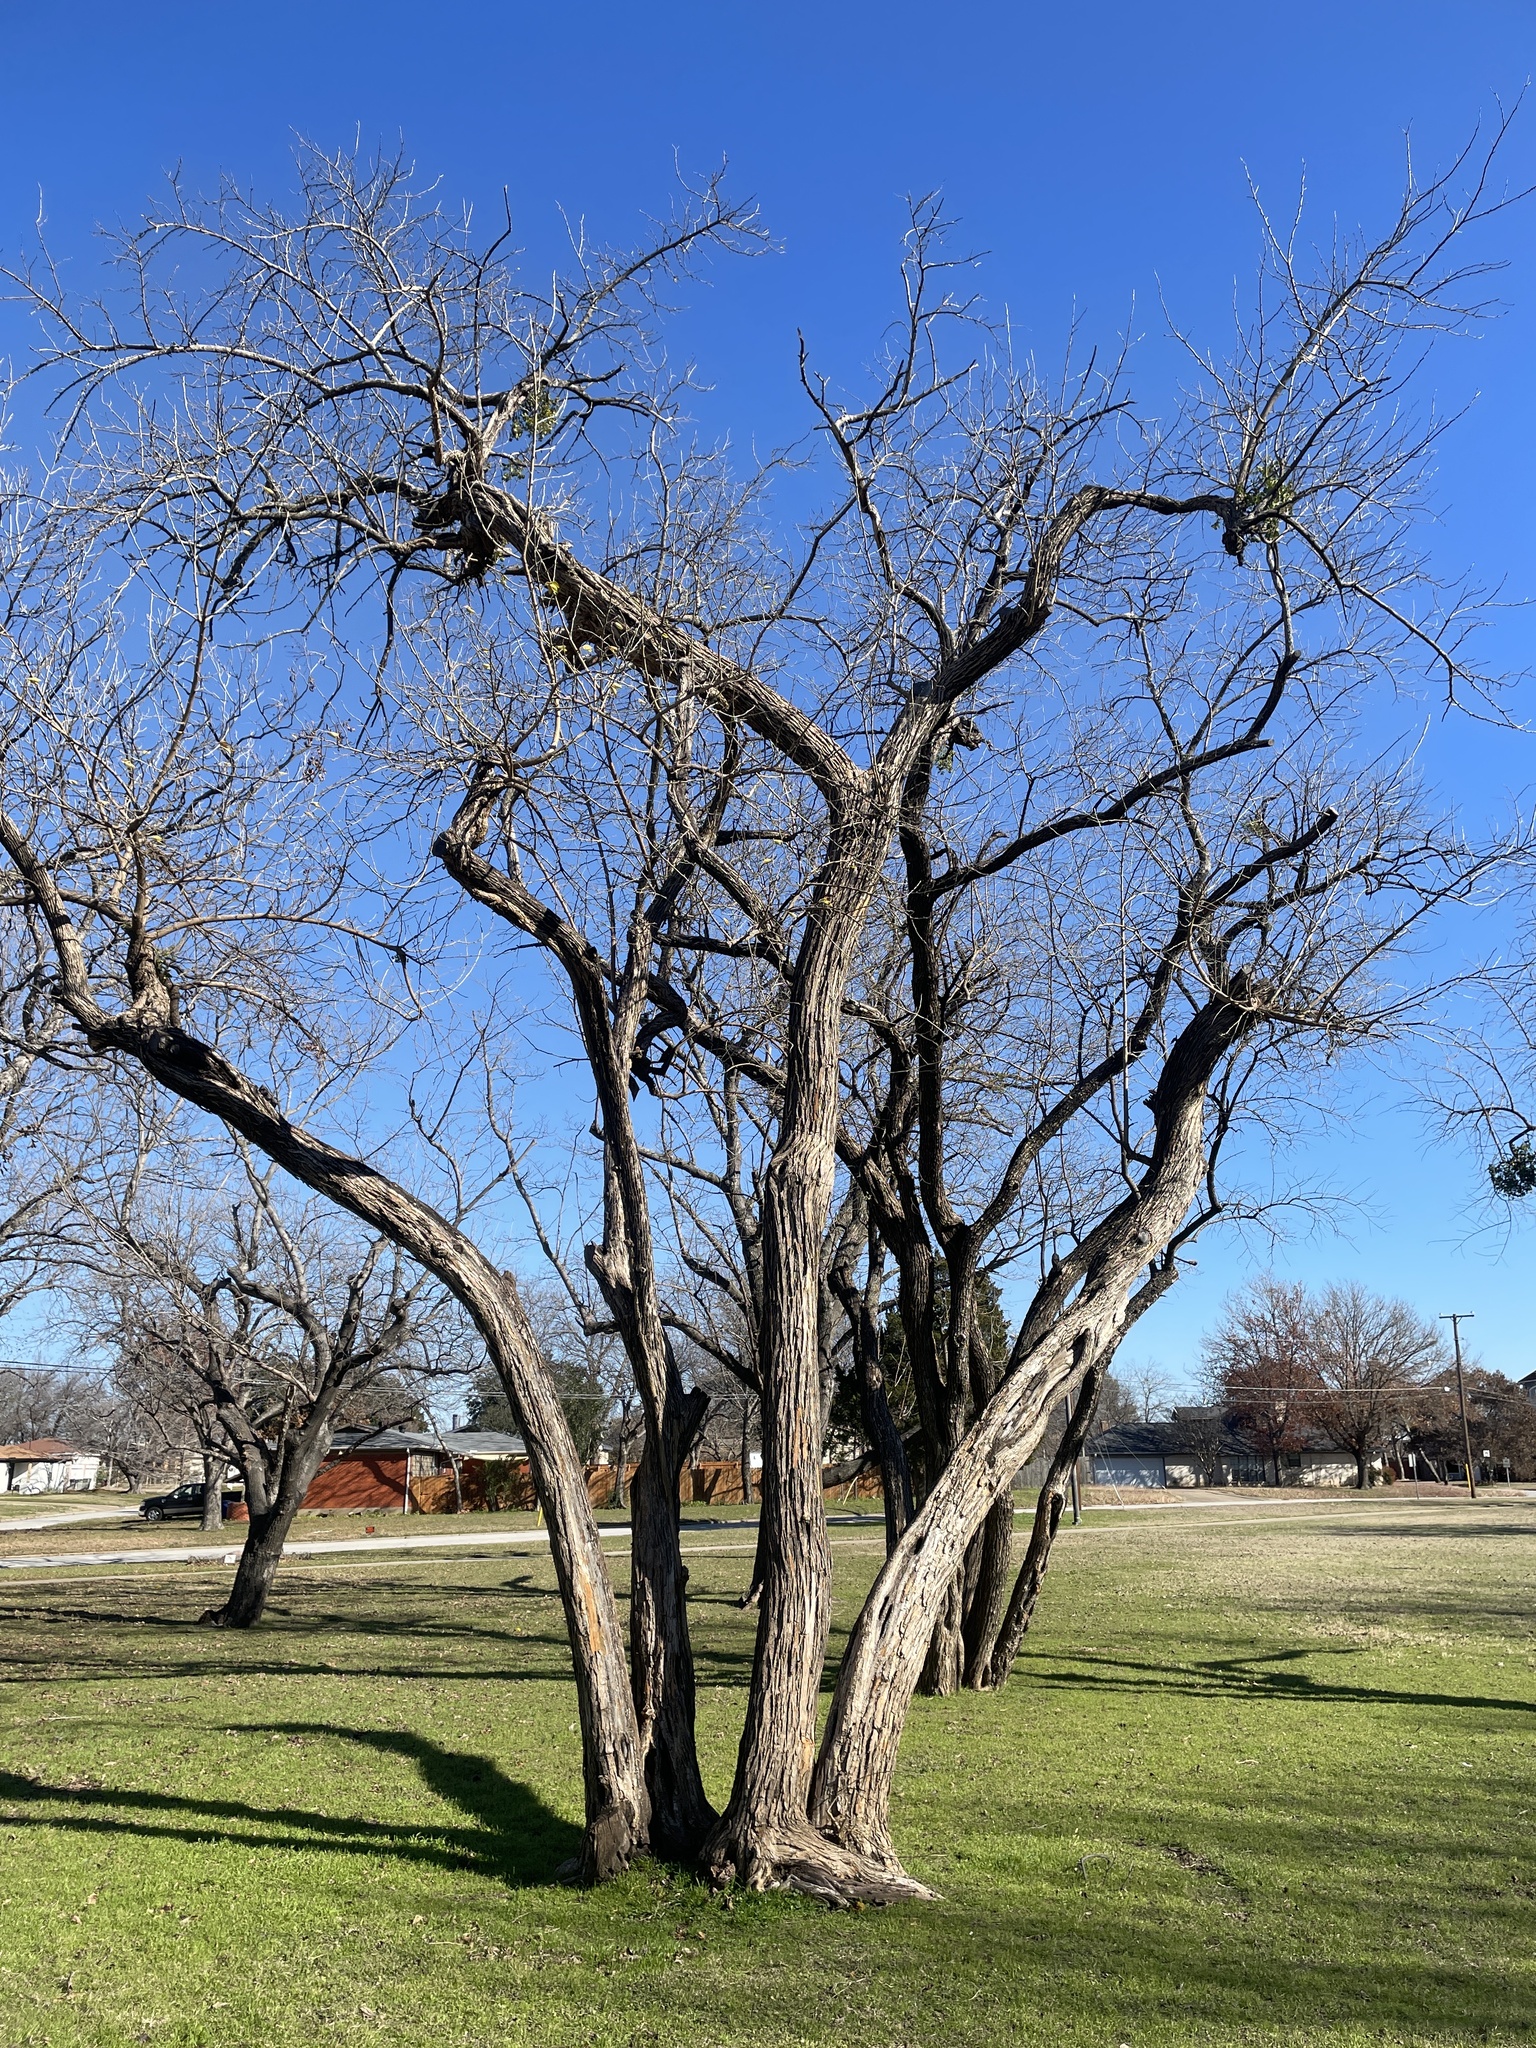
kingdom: Plantae
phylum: Tracheophyta
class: Magnoliopsida
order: Rosales
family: Moraceae
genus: Maclura
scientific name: Maclura pomifera
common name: Osage-orange
